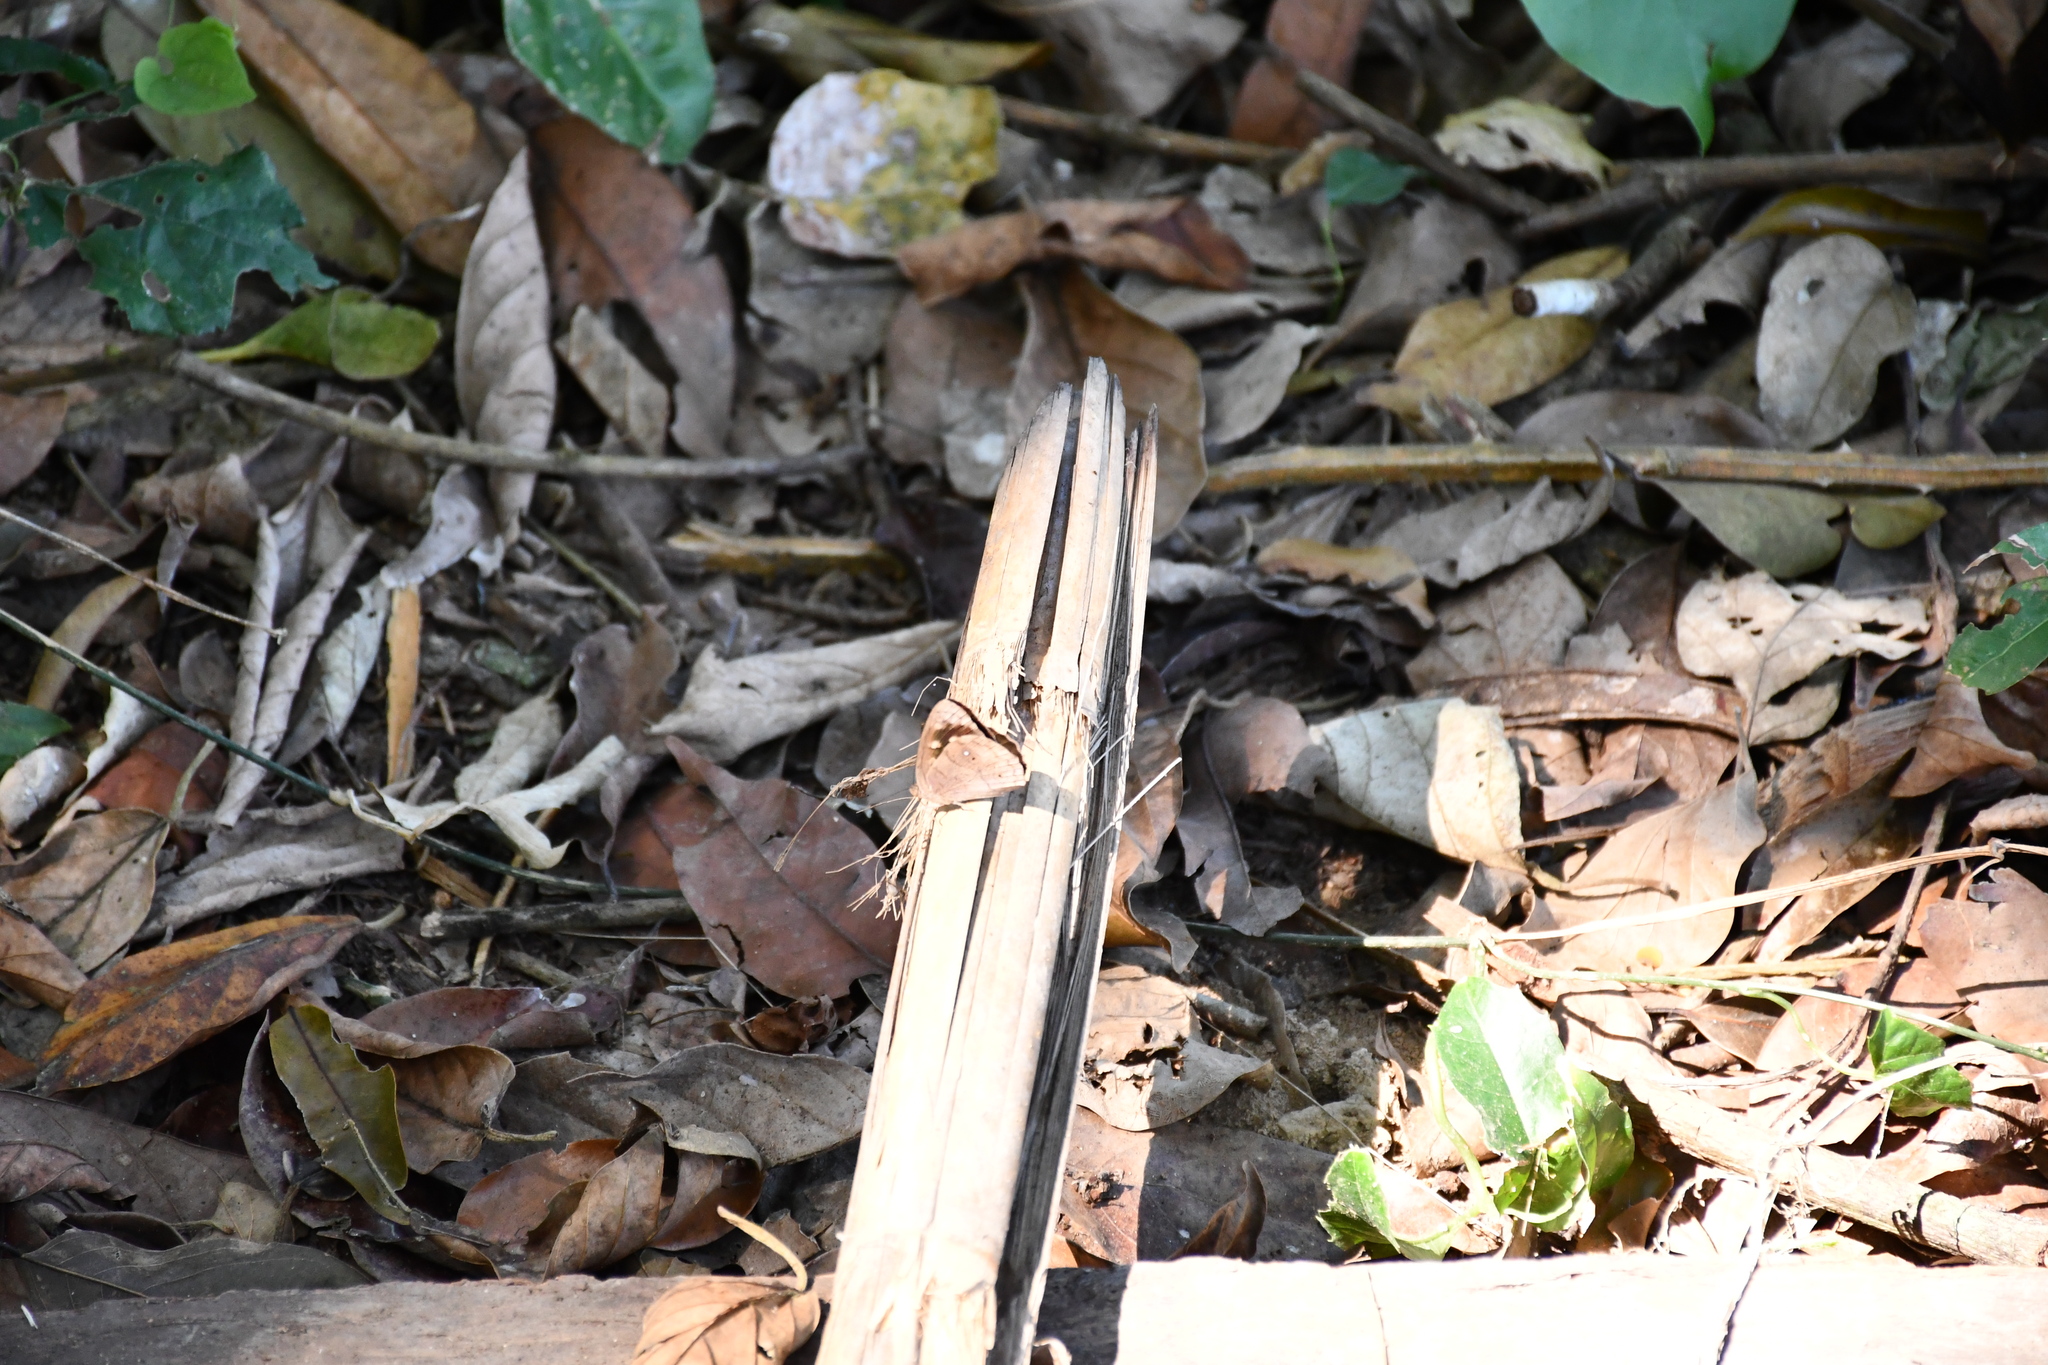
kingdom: Animalia
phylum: Arthropoda
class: Insecta
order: Lepidoptera
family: Nymphalidae
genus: Eunica
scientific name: Eunica monima
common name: Dingy purplewing
